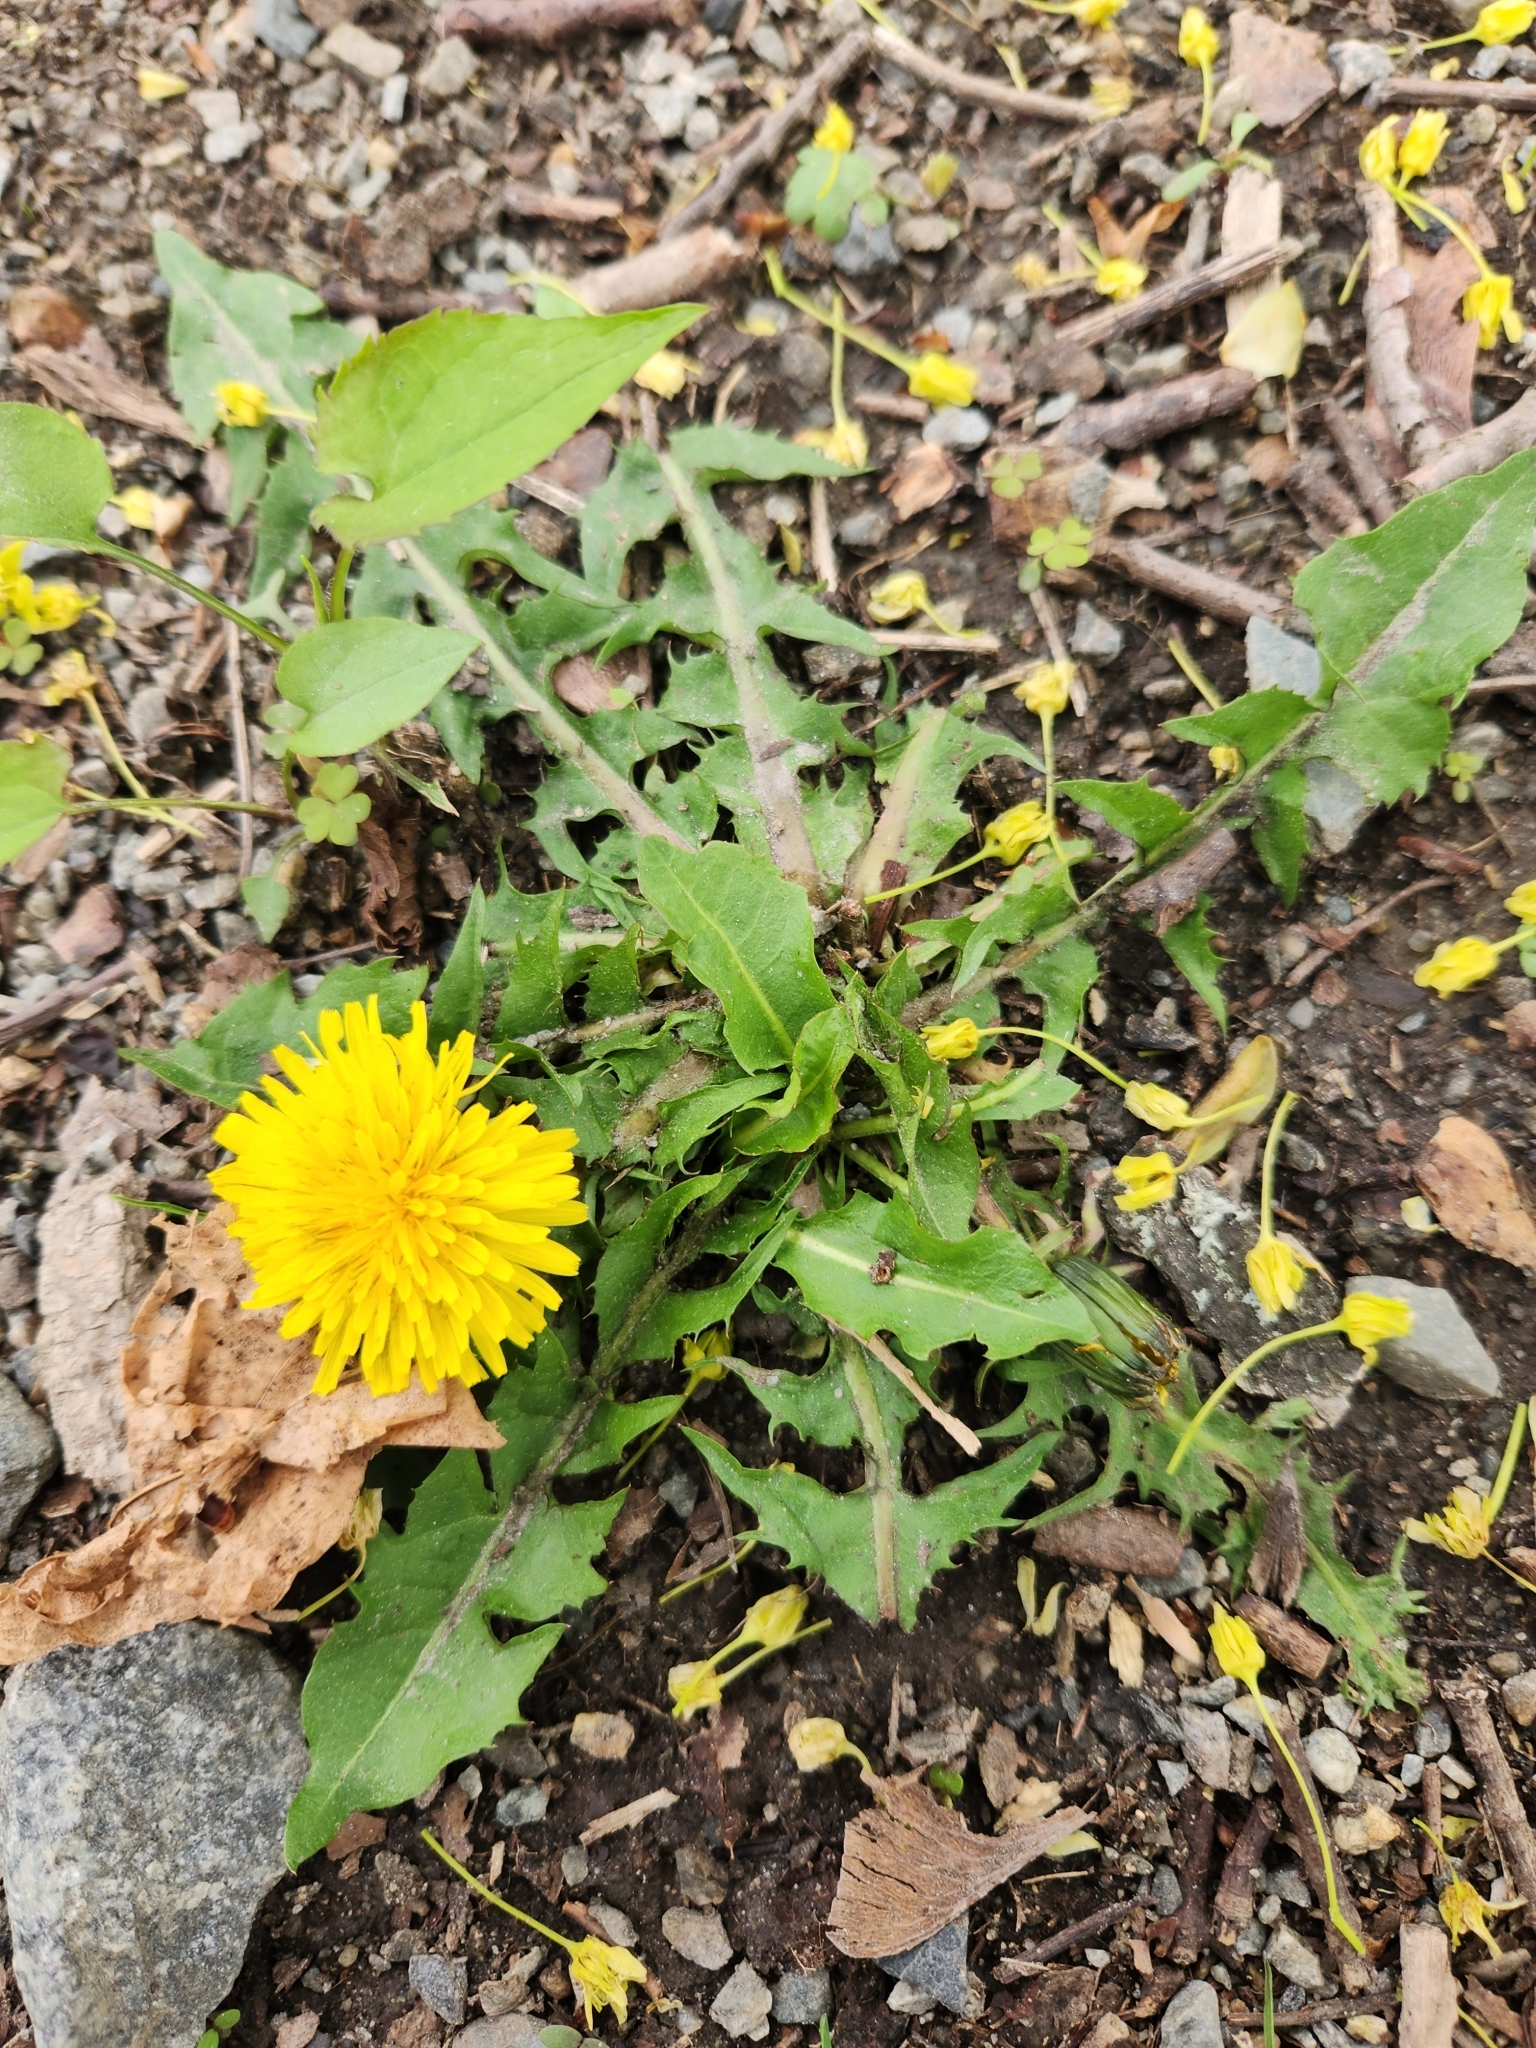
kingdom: Plantae
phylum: Tracheophyta
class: Magnoliopsida
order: Asterales
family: Asteraceae
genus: Taraxacum
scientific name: Taraxacum officinale
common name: Common dandelion
